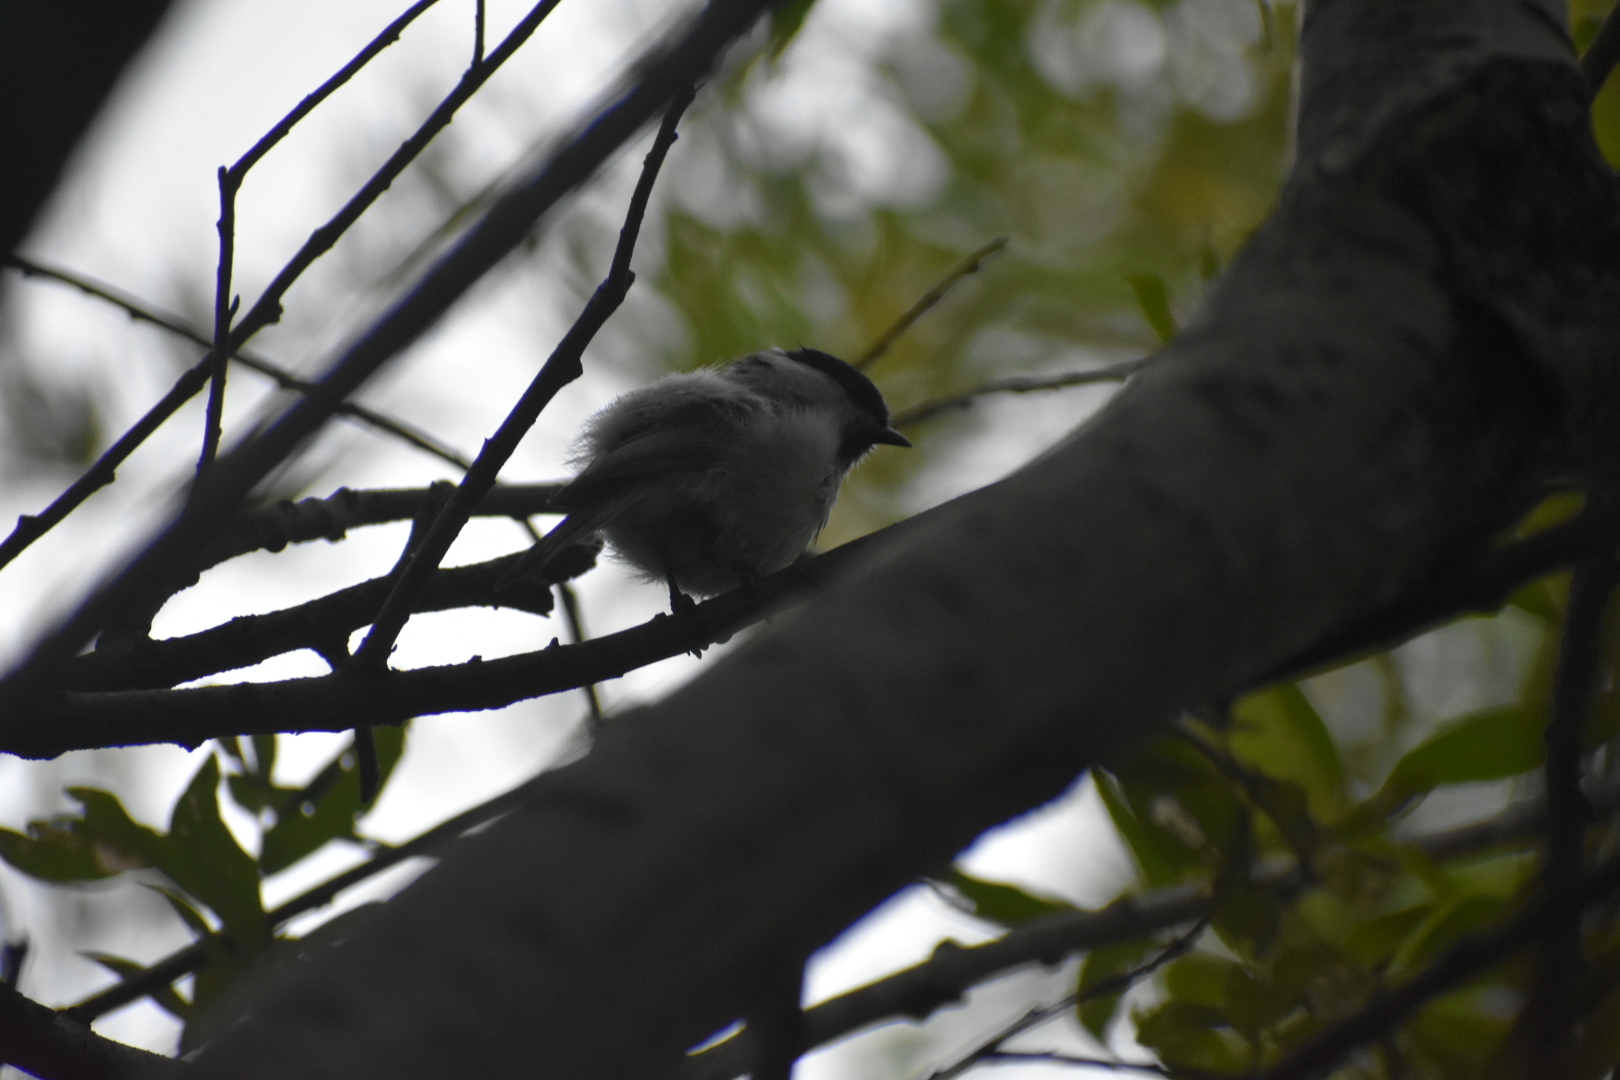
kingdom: Animalia
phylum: Chordata
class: Aves
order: Passeriformes
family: Paridae
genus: Poecile
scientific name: Poecile montanus
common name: Willow tit
